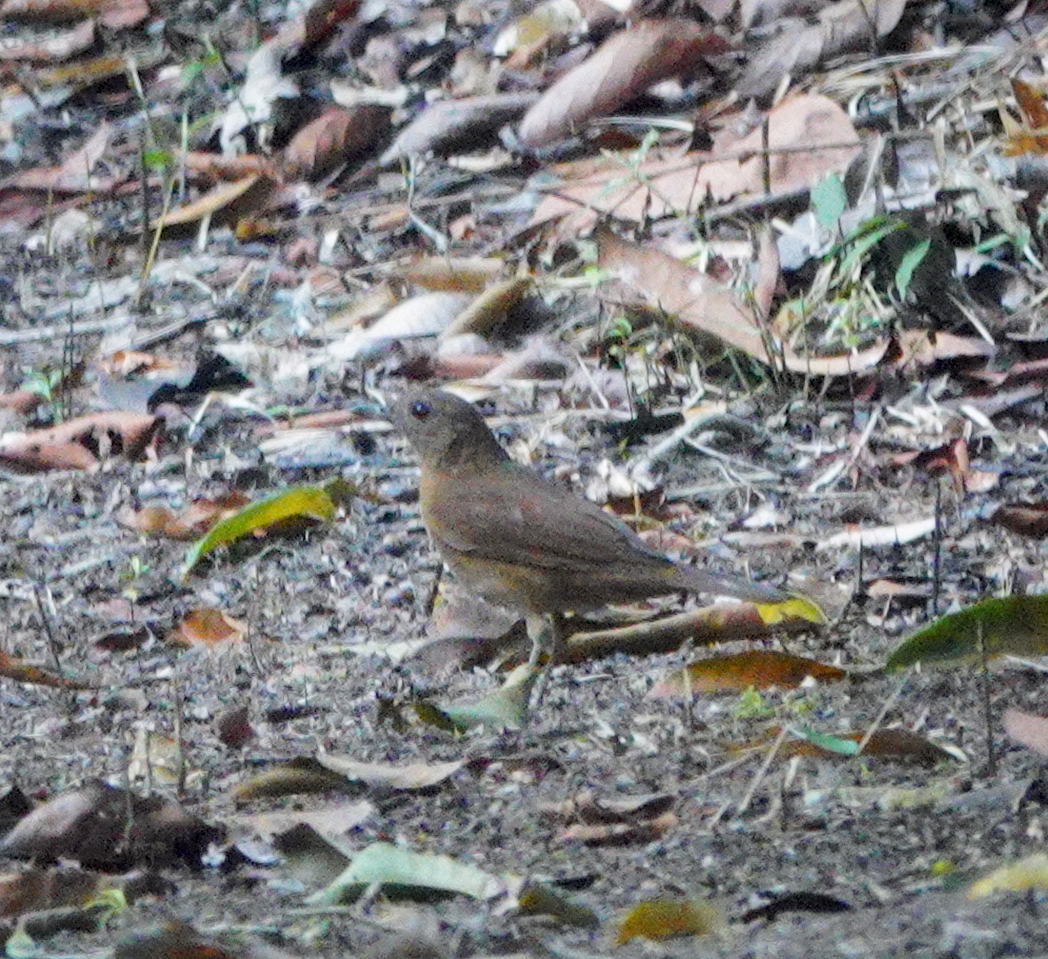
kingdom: Animalia
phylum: Chordata
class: Aves
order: Passeriformes
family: Turdidae
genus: Turdus
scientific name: Turdus fumigatus
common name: Cocoa thrush
